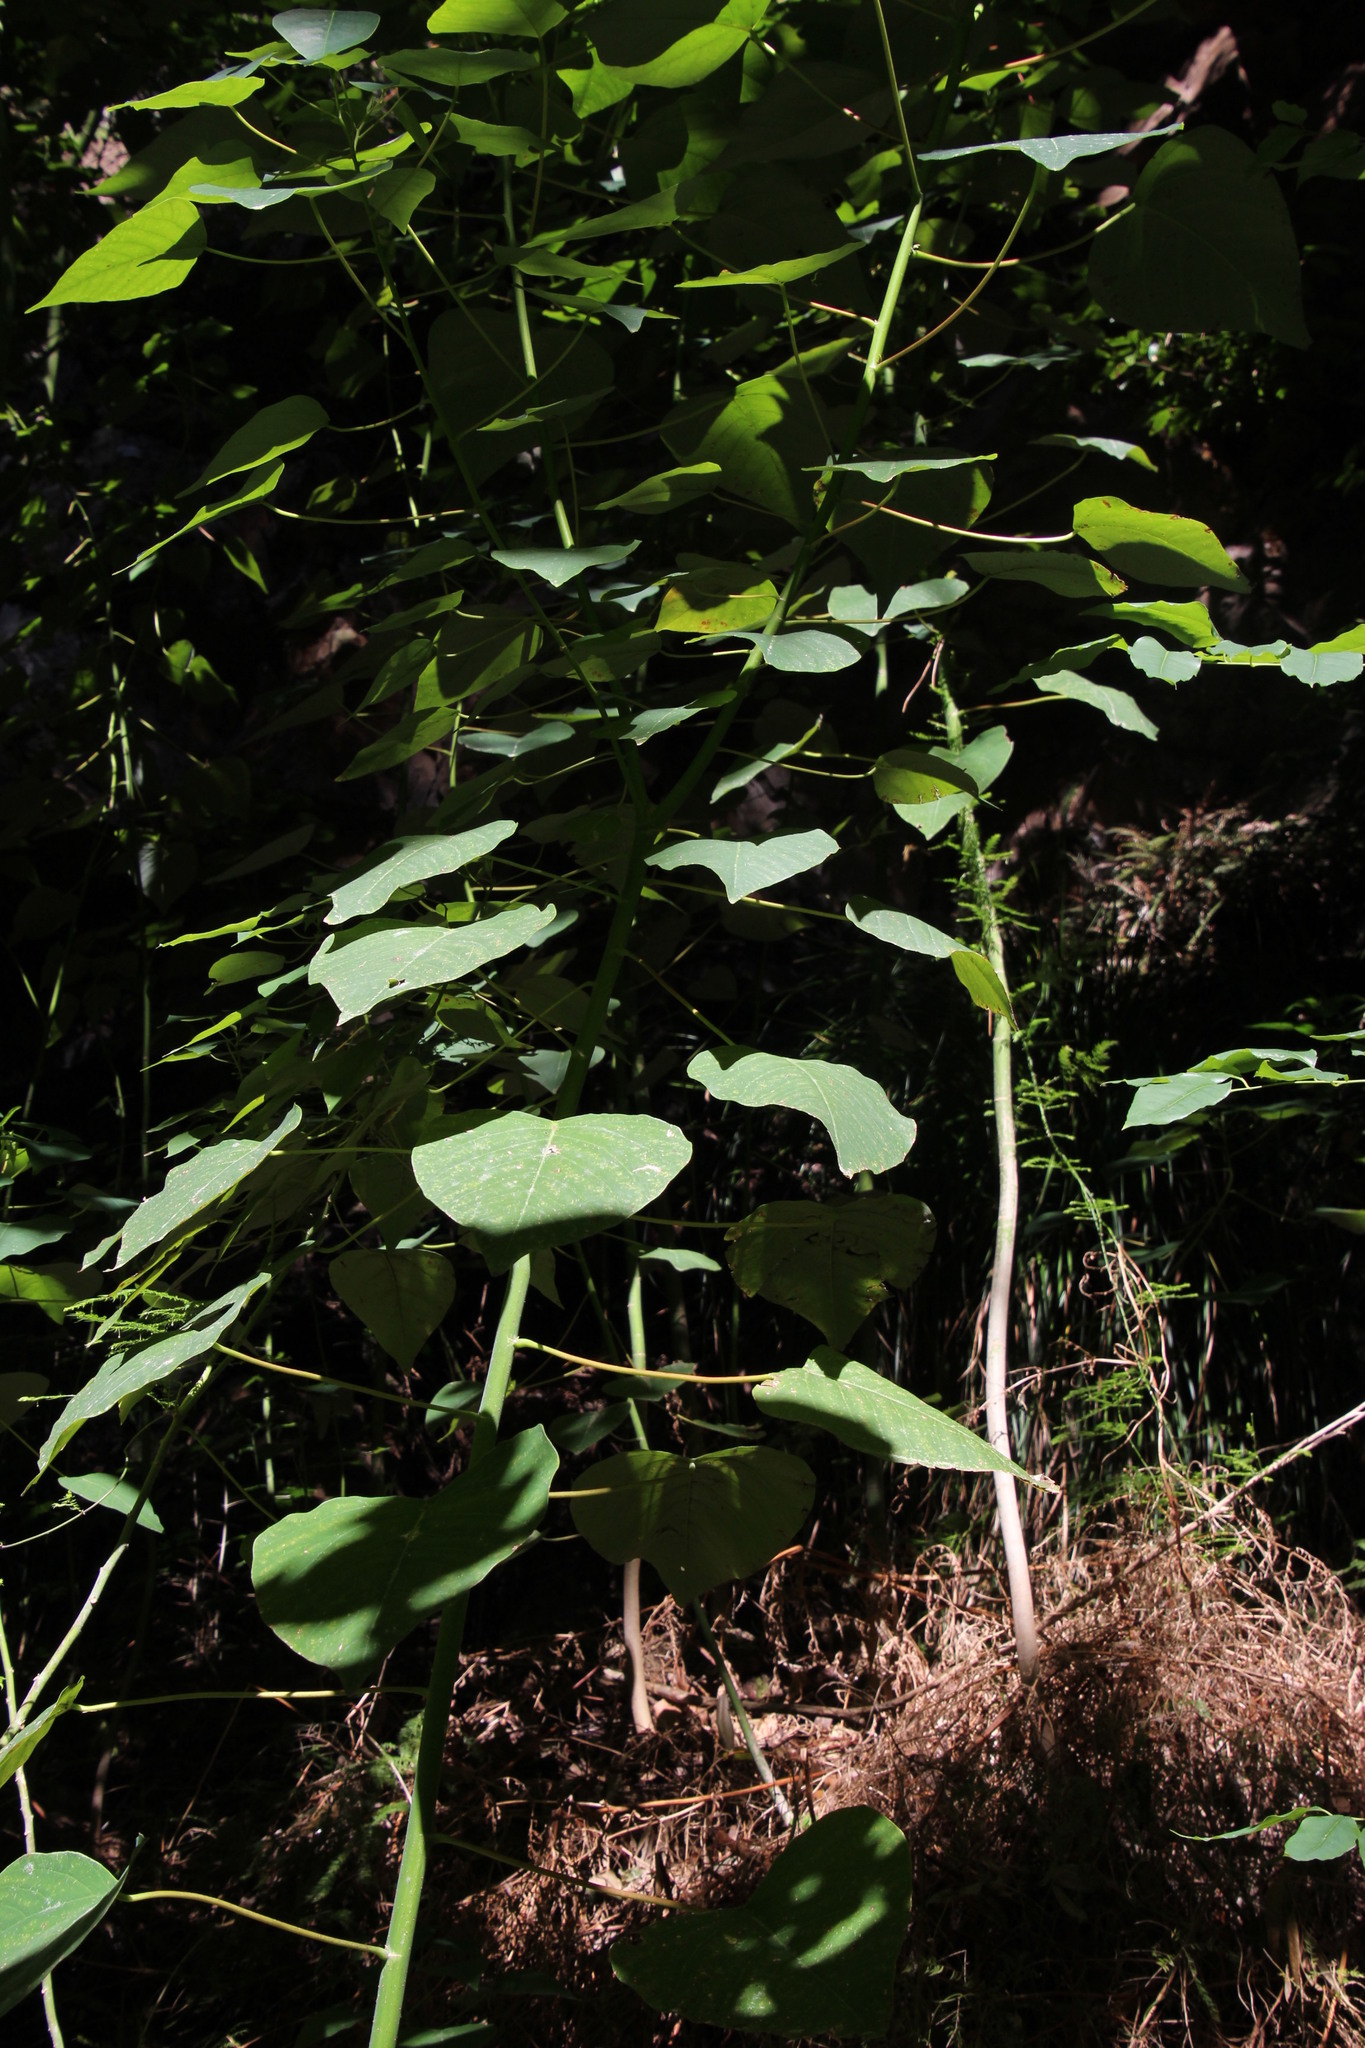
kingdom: Plantae
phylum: Tracheophyta
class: Magnoliopsida
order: Malpighiales
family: Euphorbiaceae
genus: Homalanthus
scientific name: Homalanthus populifolius
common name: Queensland poplar
